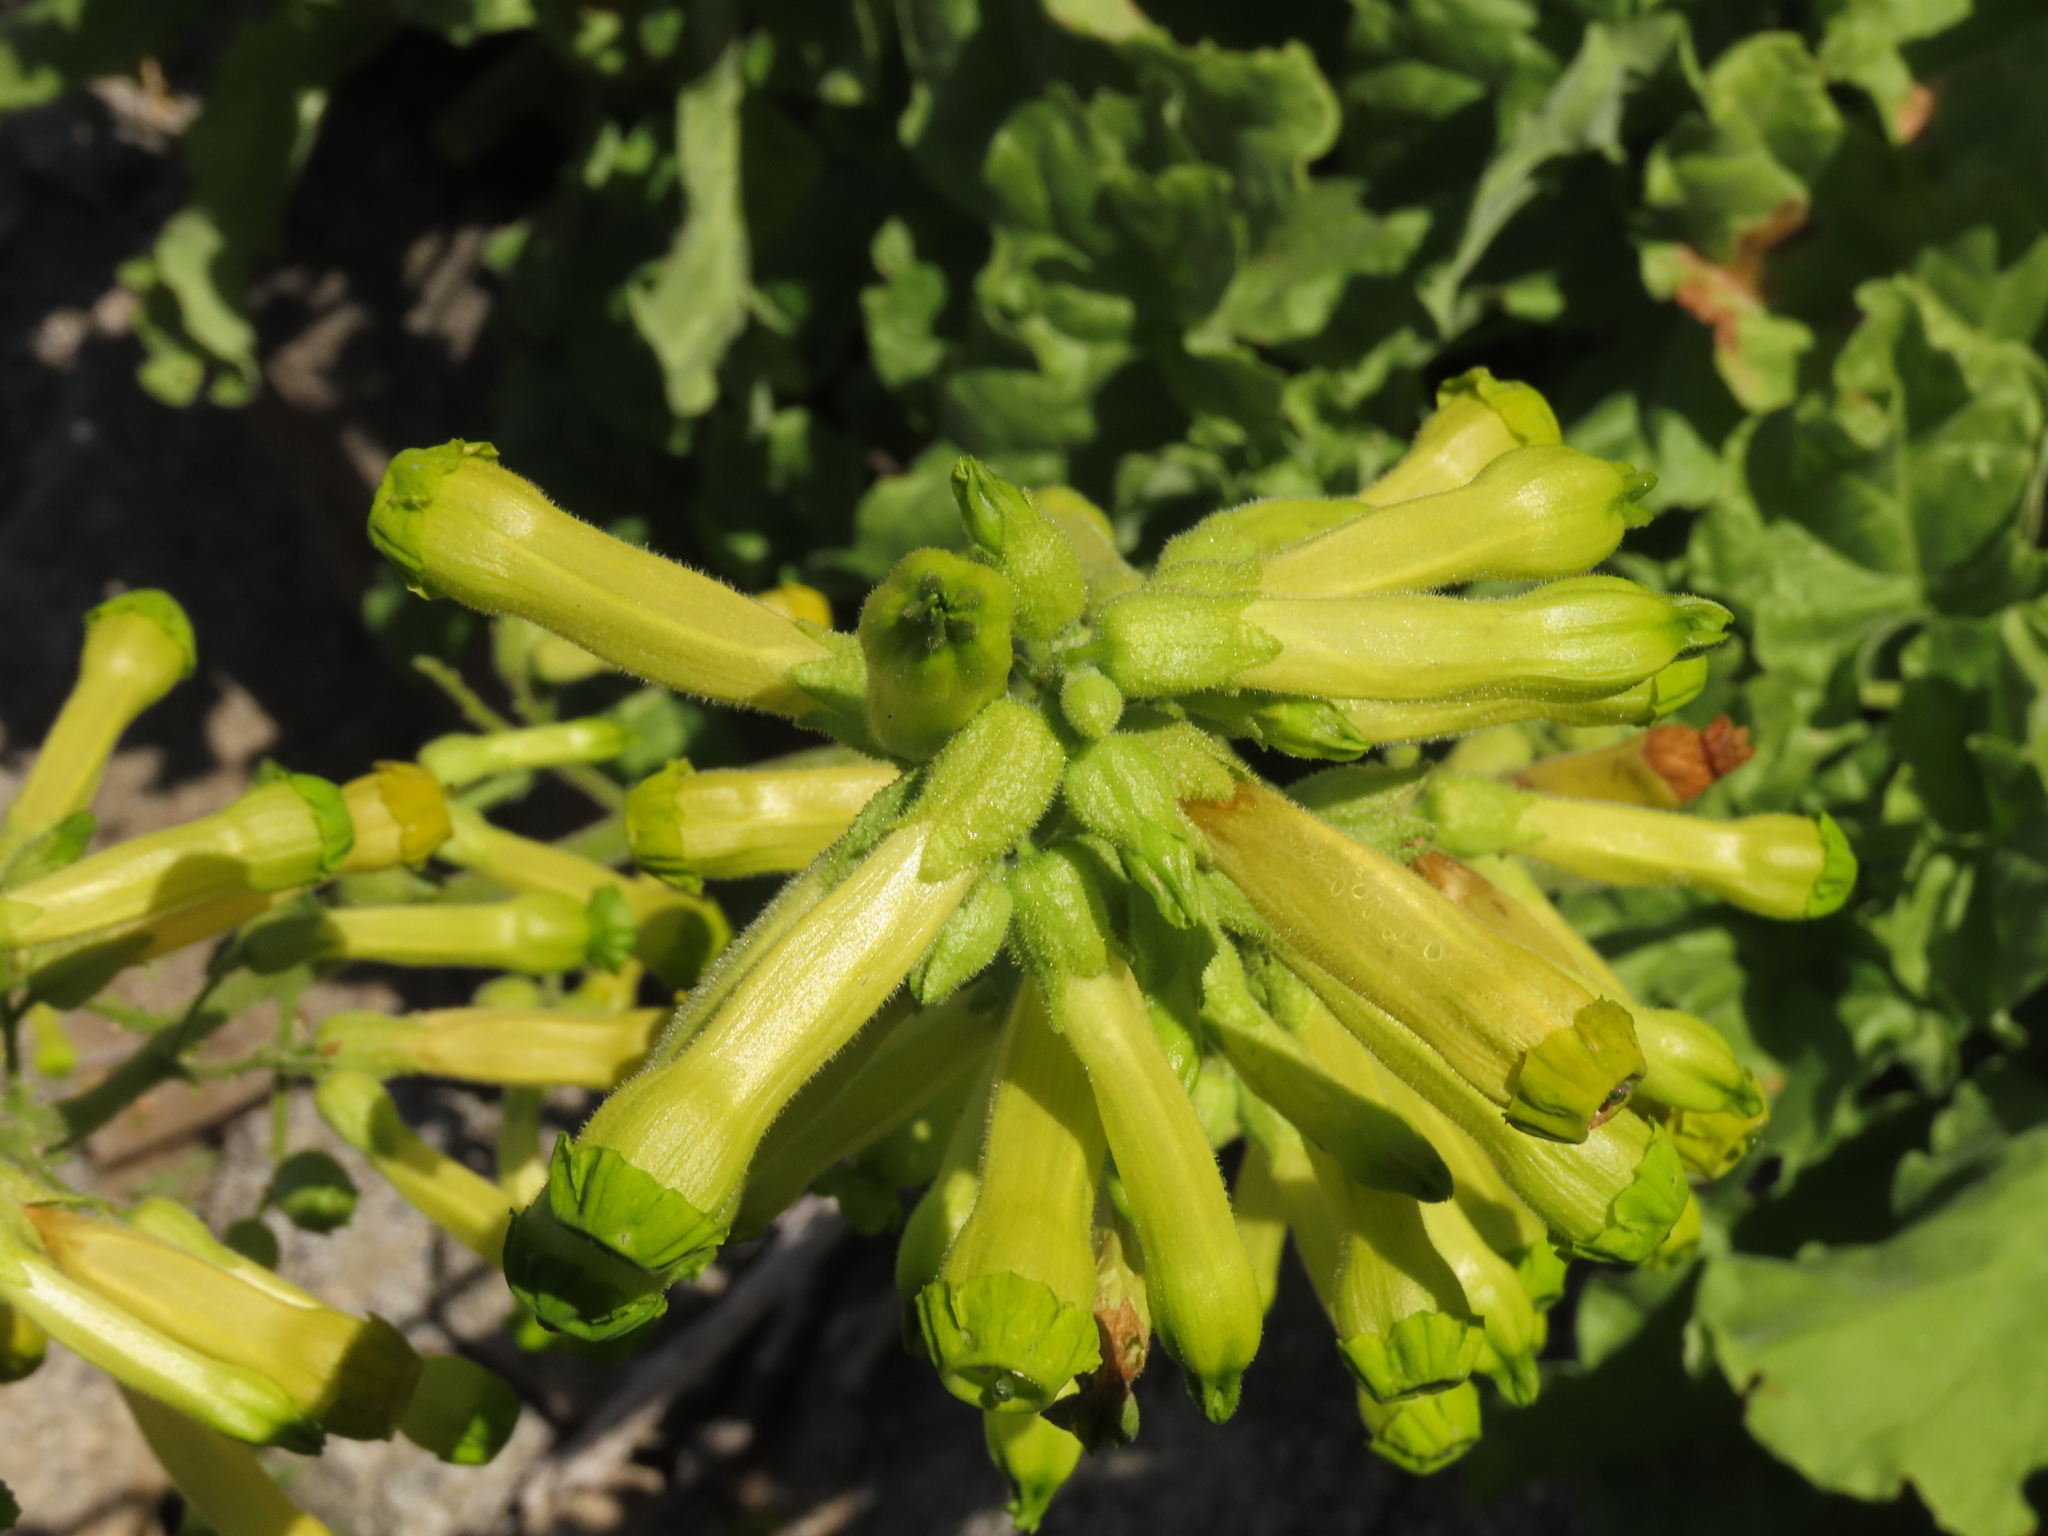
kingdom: Plantae
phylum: Tracheophyta
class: Magnoliopsida
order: Solanales
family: Solanaceae
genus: Nicotiana
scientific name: Nicotiana solanifolia
